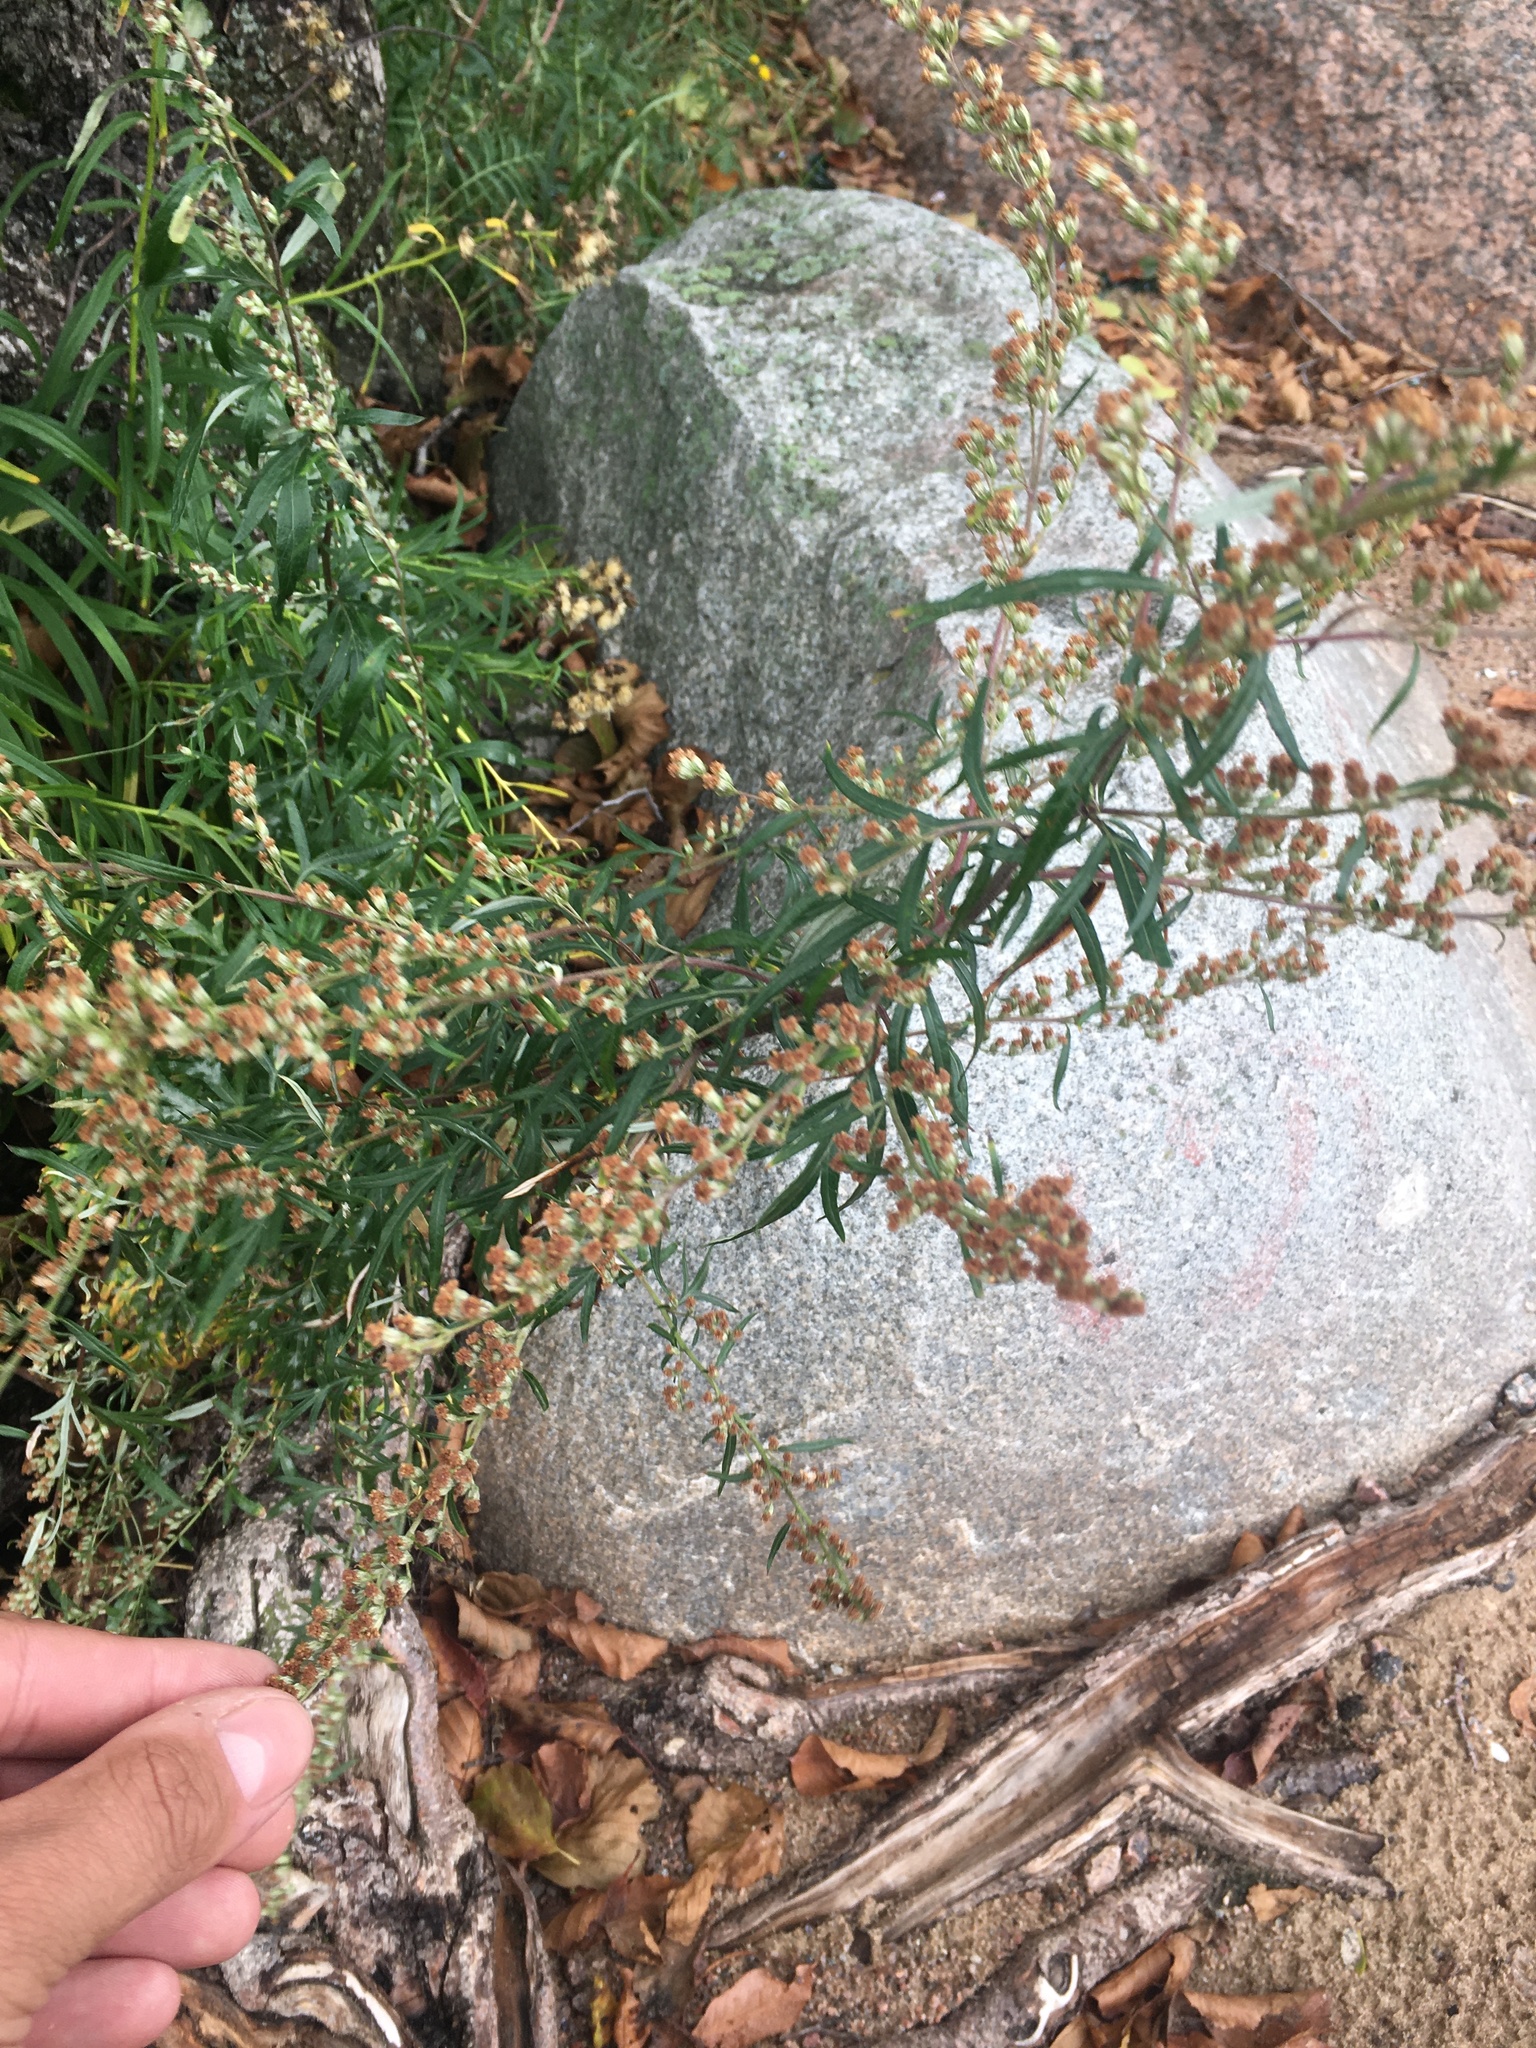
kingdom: Plantae
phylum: Tracheophyta
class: Magnoliopsida
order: Asterales
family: Asteraceae
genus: Artemisia
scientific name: Artemisia vulgaris
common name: Mugwort
